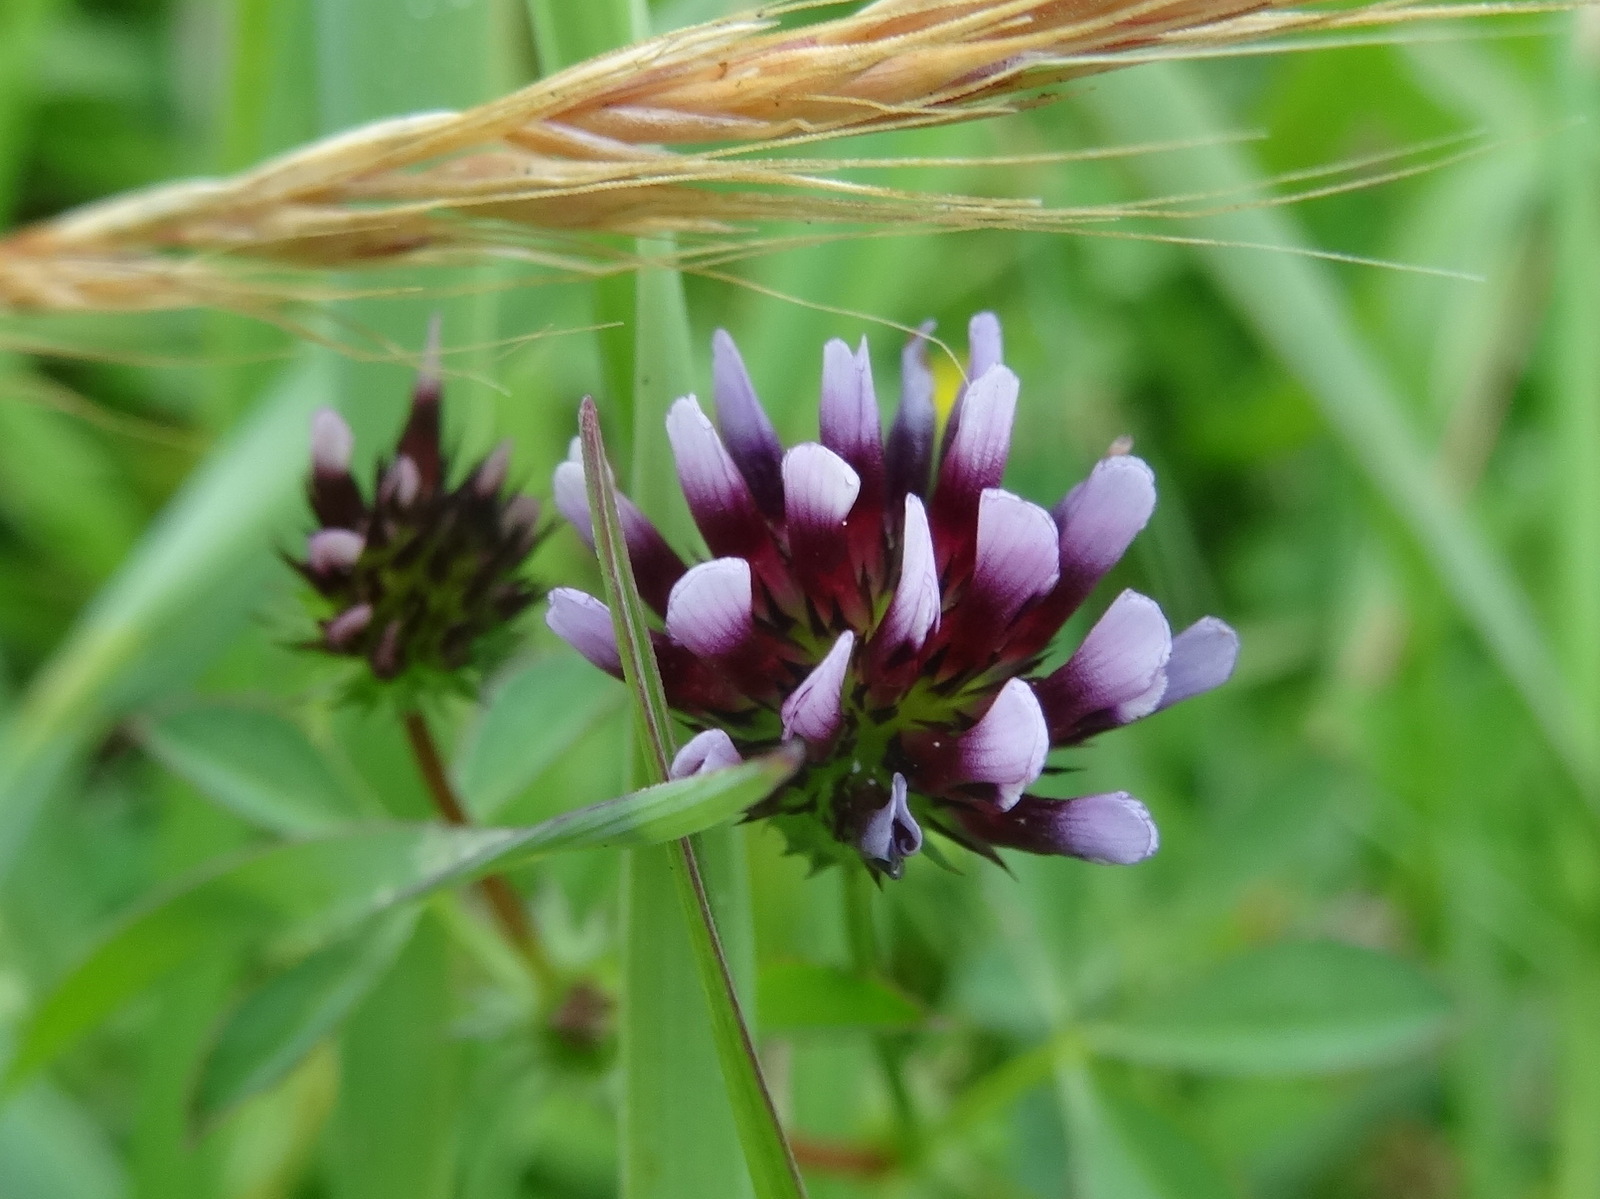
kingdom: Plantae
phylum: Tracheophyta
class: Magnoliopsida
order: Fabales
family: Fabaceae
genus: Trifolium
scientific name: Trifolium variegatum
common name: Whitetip clover
